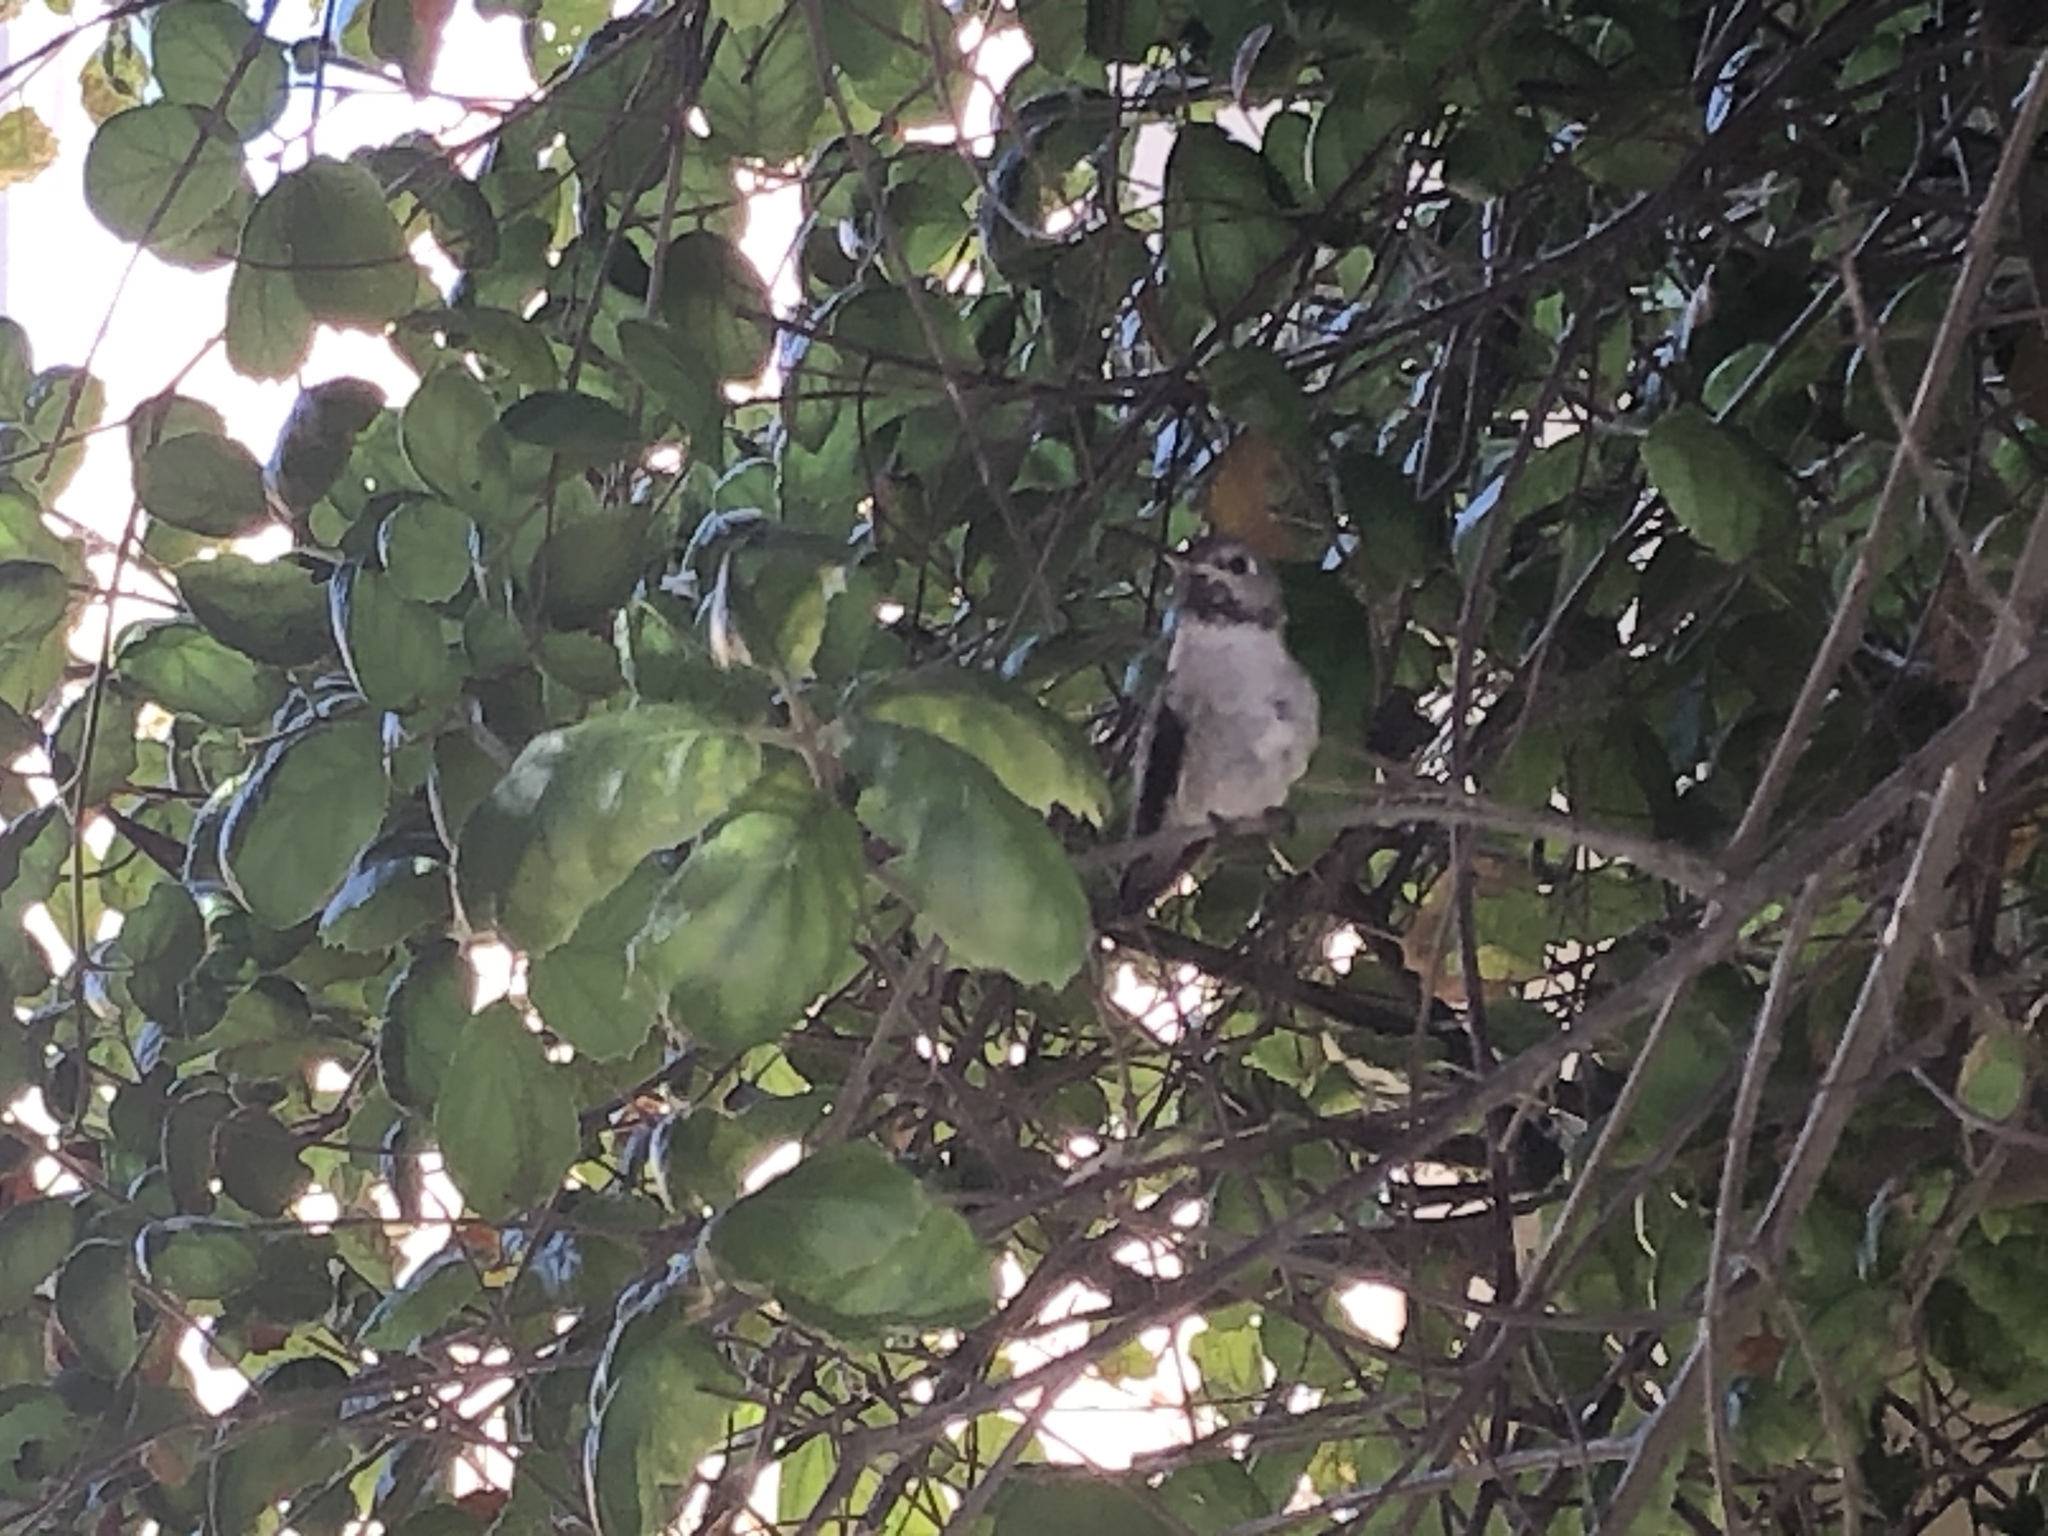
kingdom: Animalia
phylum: Chordata
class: Aves
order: Apodiformes
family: Trochilidae
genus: Calypte
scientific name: Calypte costae
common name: Costa's hummingbird
